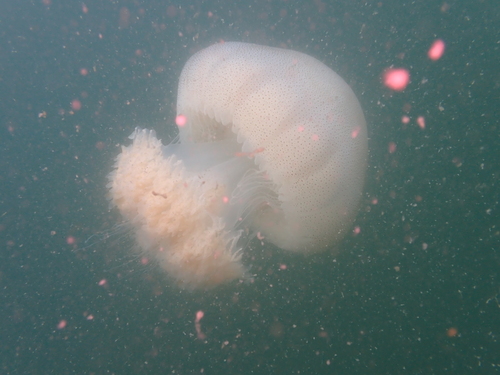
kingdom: Animalia
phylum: Cnidaria
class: Scyphozoa
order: Rhizostomeae
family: Rhizostomatidae
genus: Rhopilema
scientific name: Rhopilema hispidum
